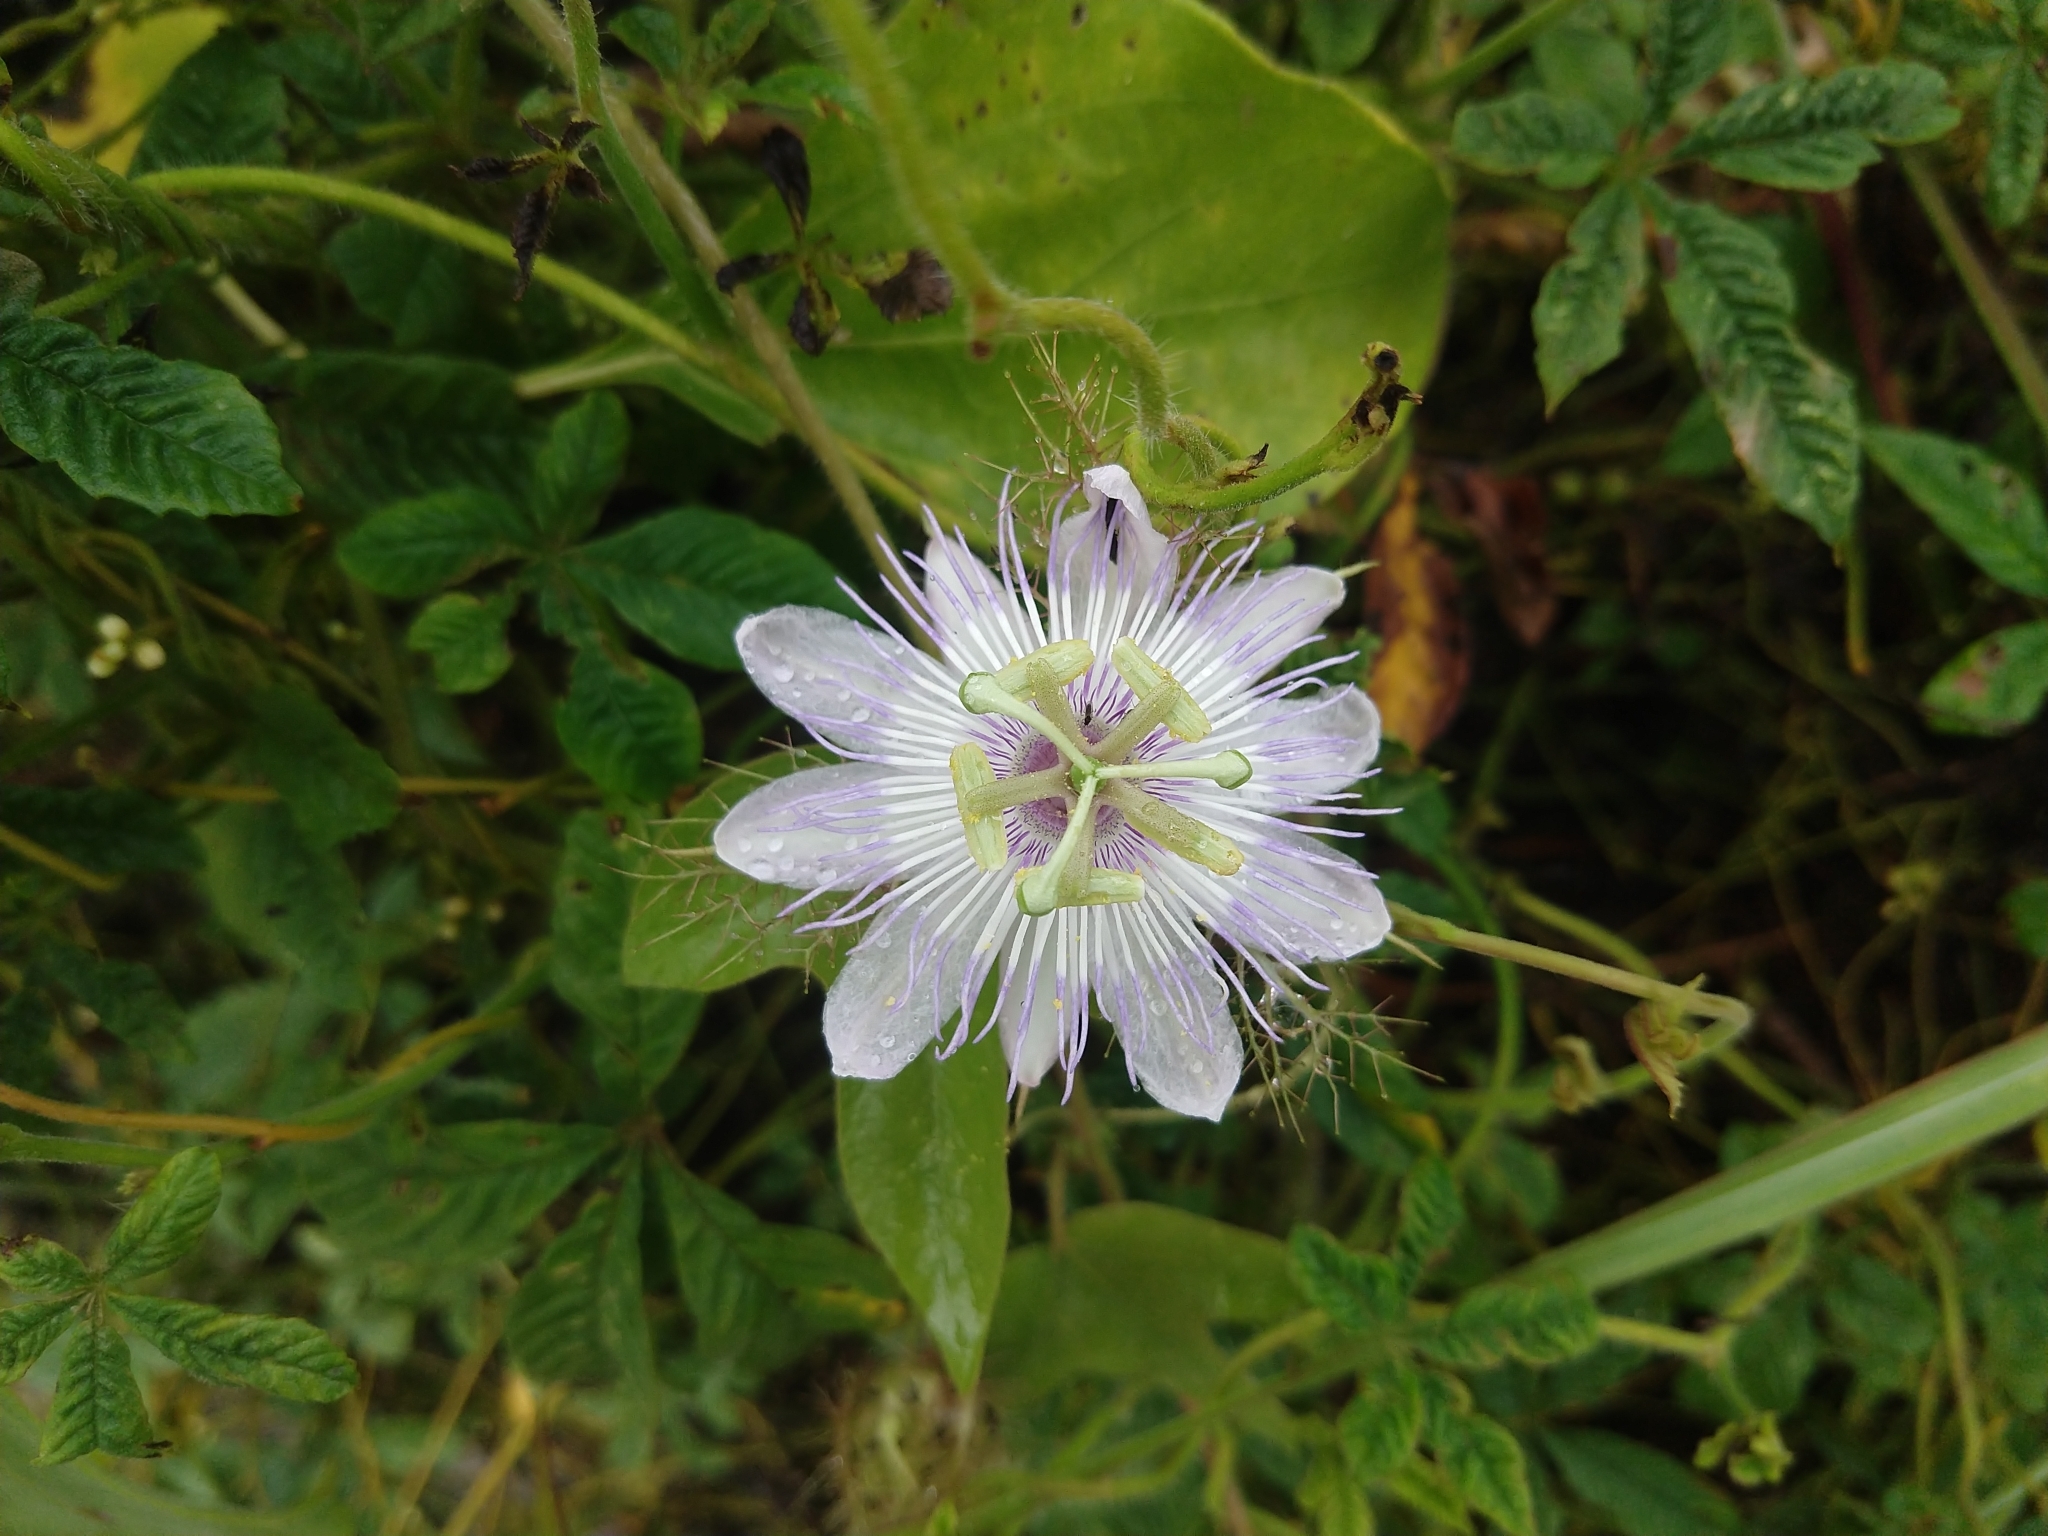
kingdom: Plantae
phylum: Tracheophyta
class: Magnoliopsida
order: Malpighiales
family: Passifloraceae
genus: Passiflora
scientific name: Passiflora foetida
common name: Fetid passionflower
